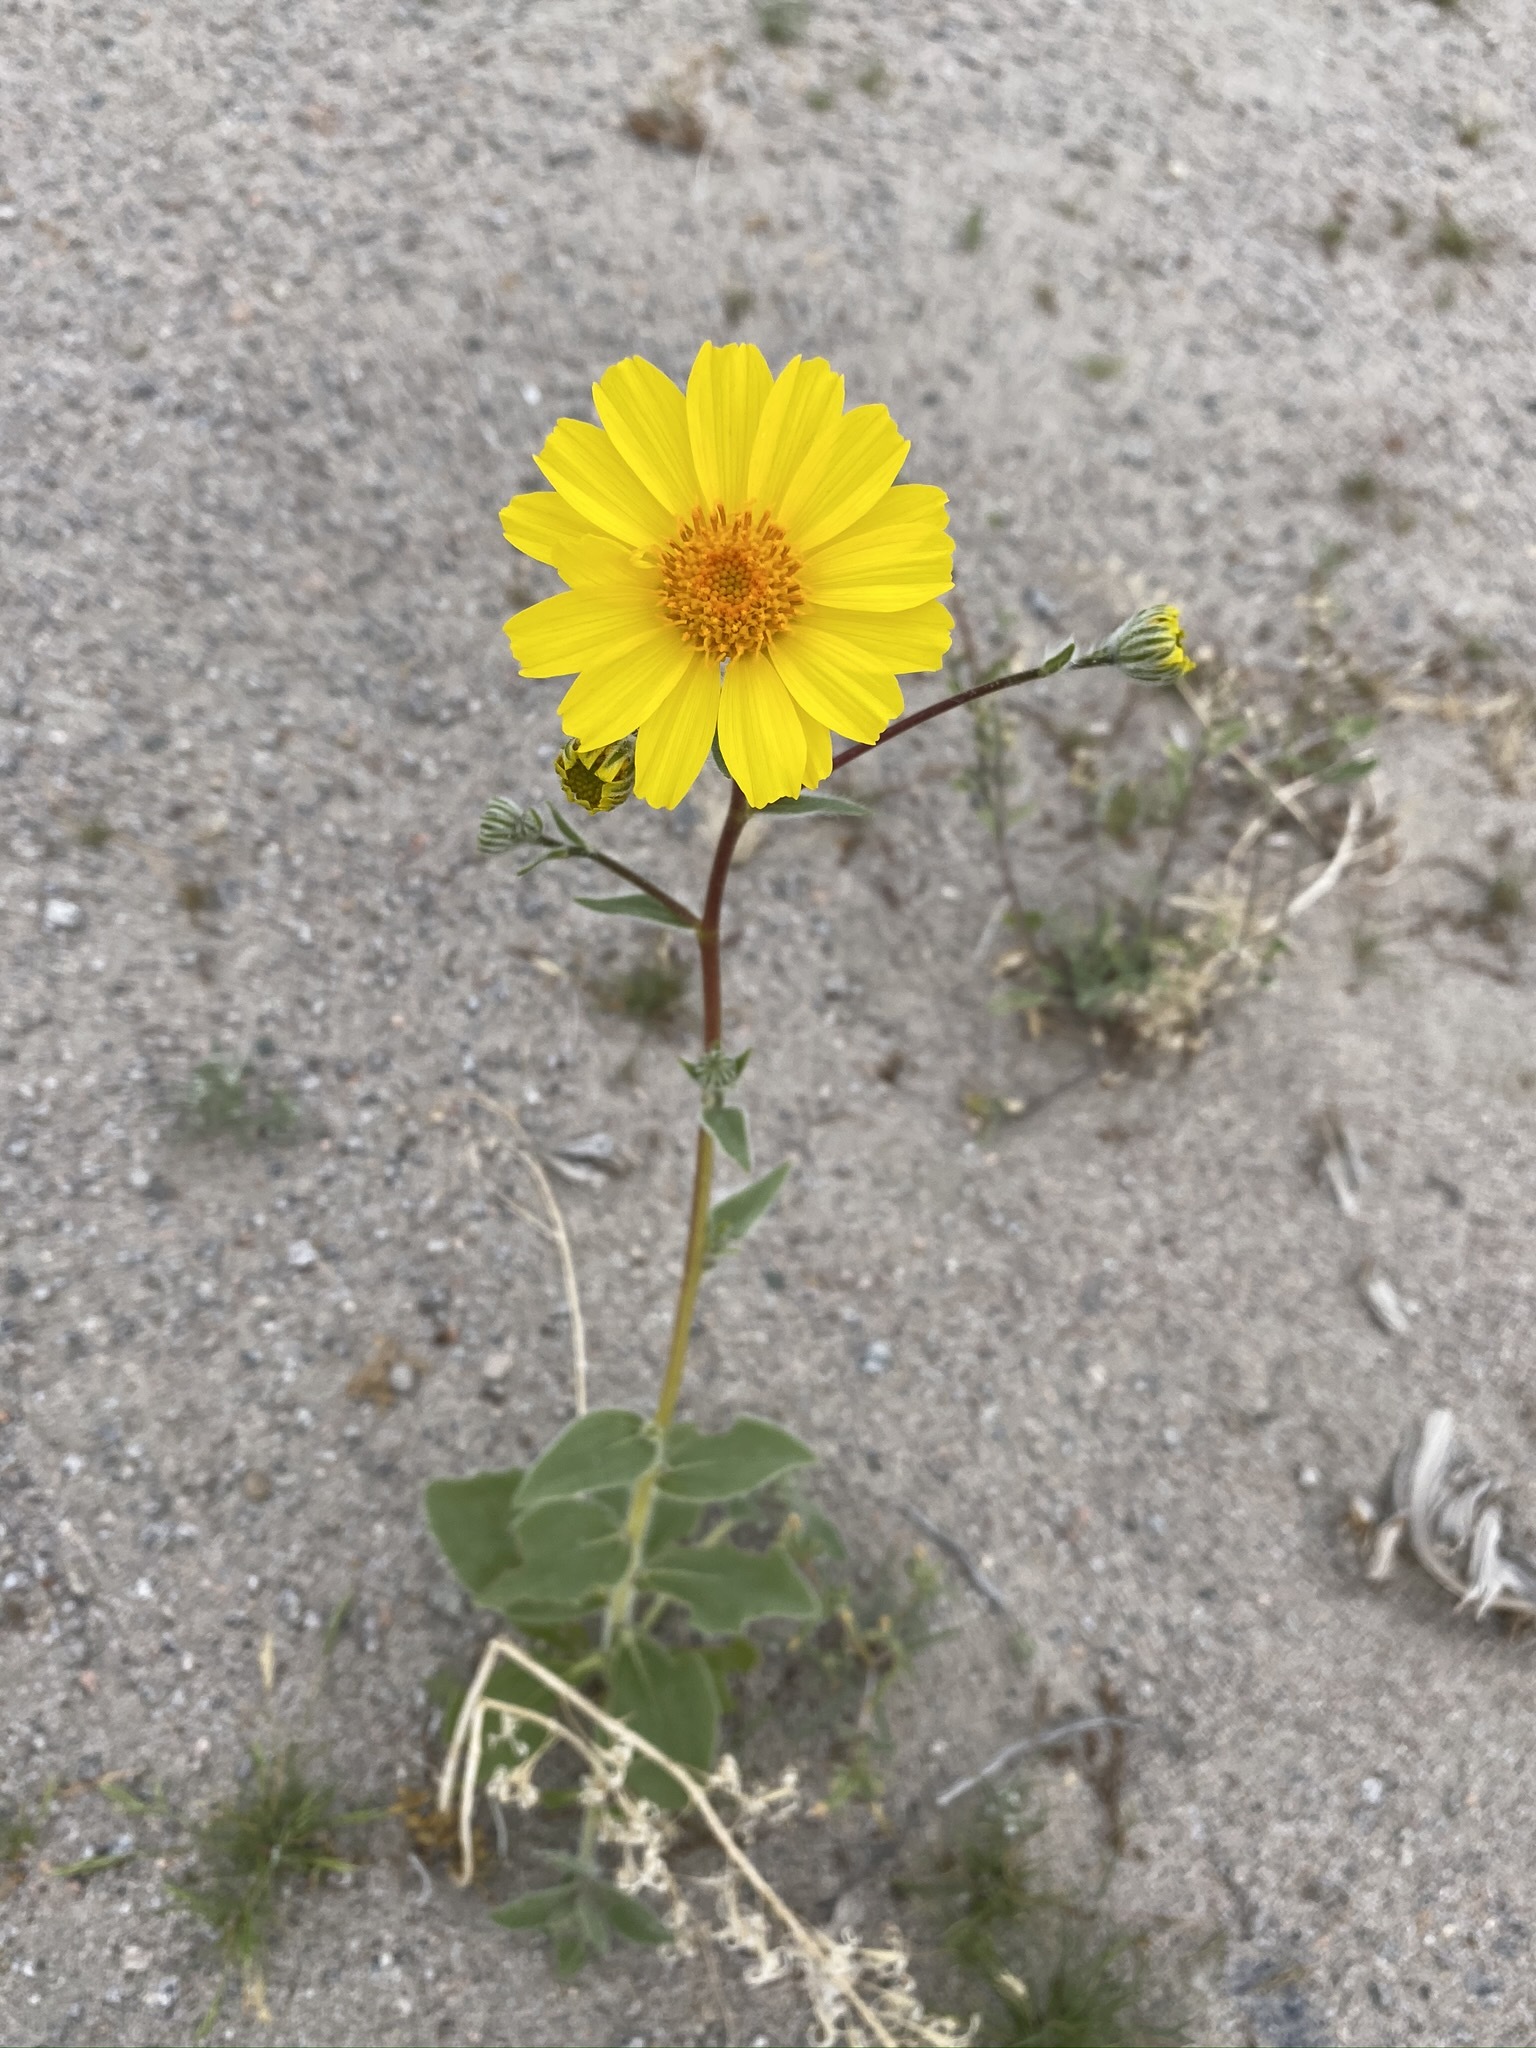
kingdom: Plantae
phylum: Tracheophyta
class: Magnoliopsida
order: Asterales
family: Asteraceae
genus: Geraea
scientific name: Geraea canescens
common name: Desert-gold
